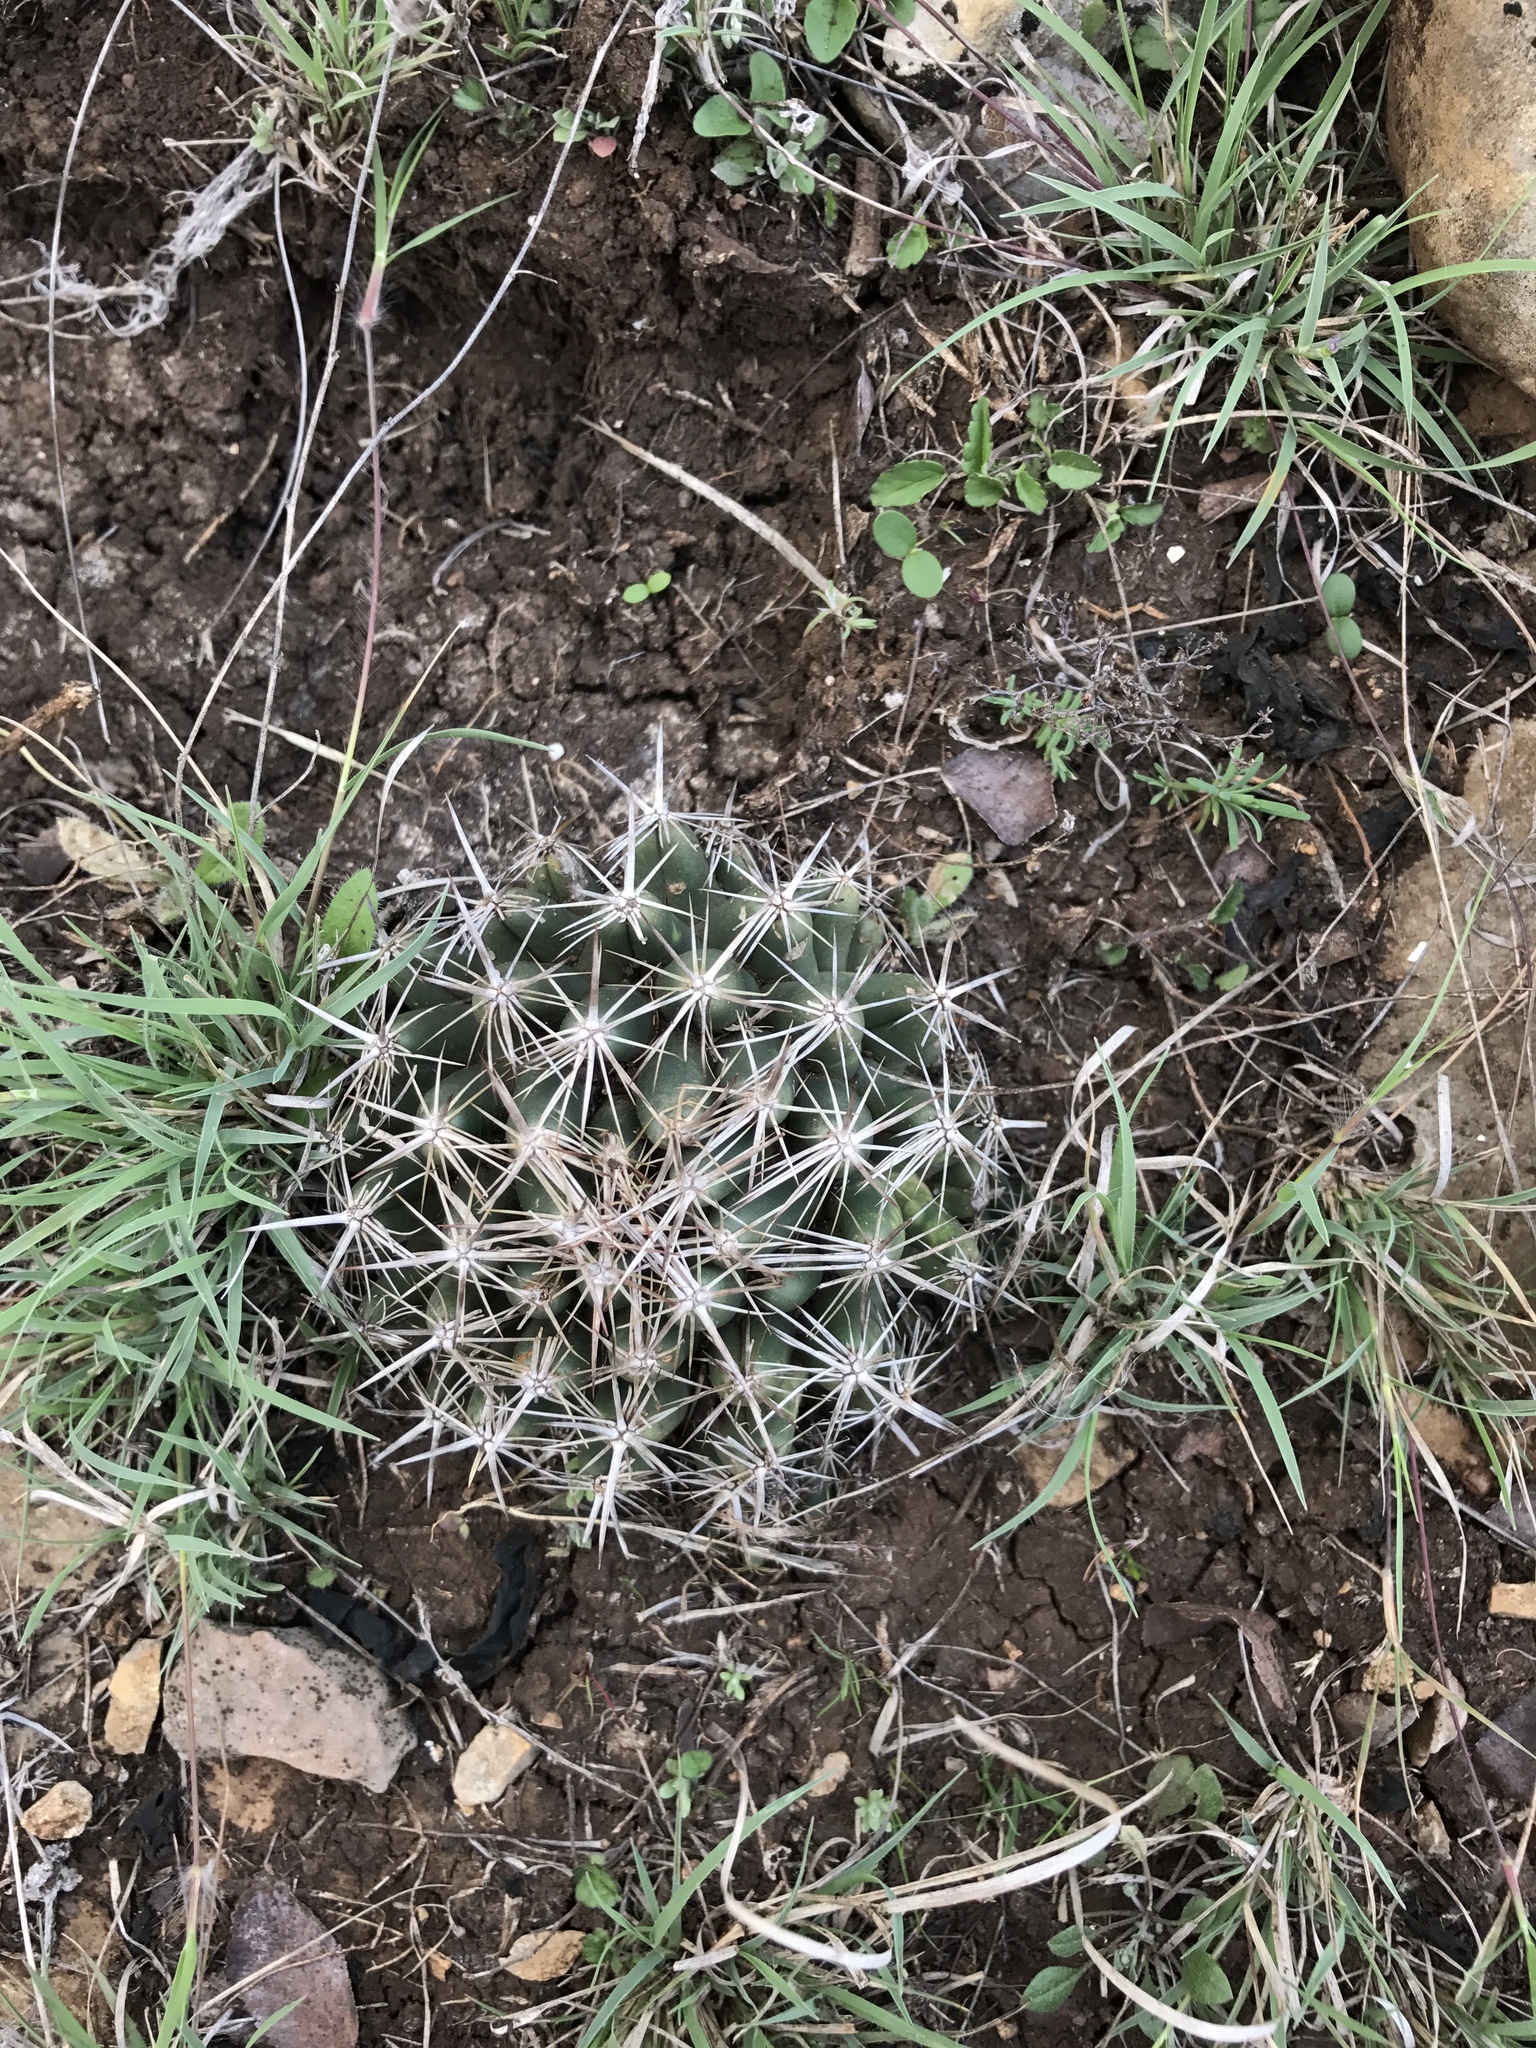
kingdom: Plantae
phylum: Tracheophyta
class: Magnoliopsida
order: Caryophyllales
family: Cactaceae
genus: Coryphantha
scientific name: Coryphantha sulcata
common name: Finger cactus
